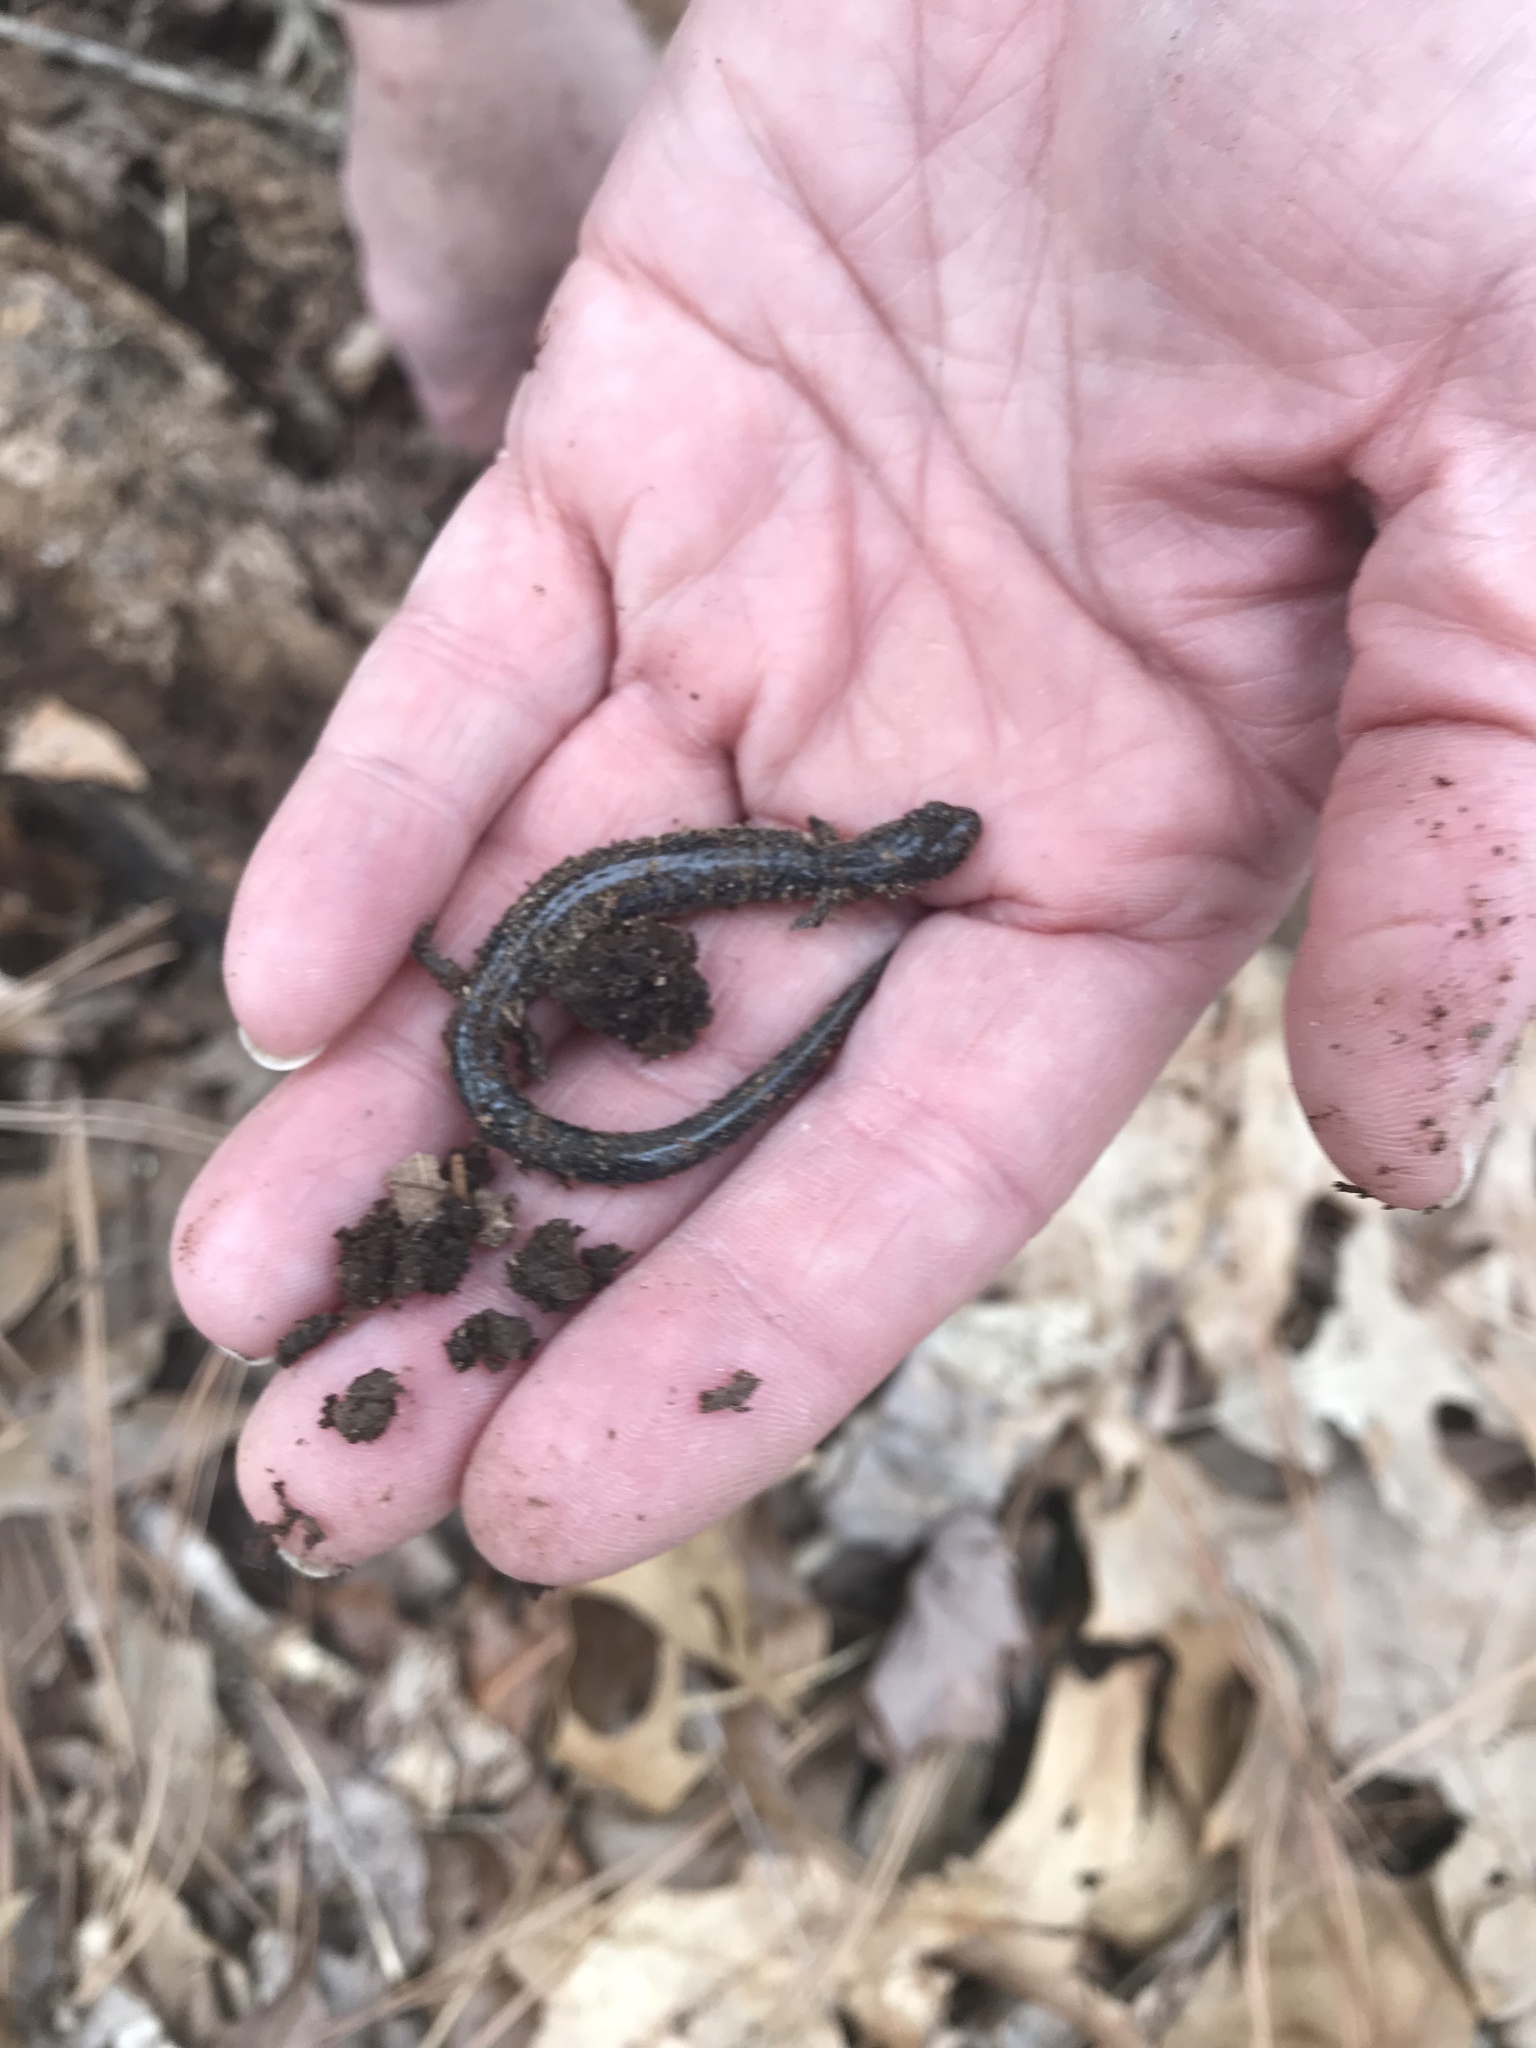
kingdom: Animalia
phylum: Chordata
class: Amphibia
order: Caudata
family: Plethodontidae
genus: Plethodon
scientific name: Plethodon cinereus
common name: Redback salamander
